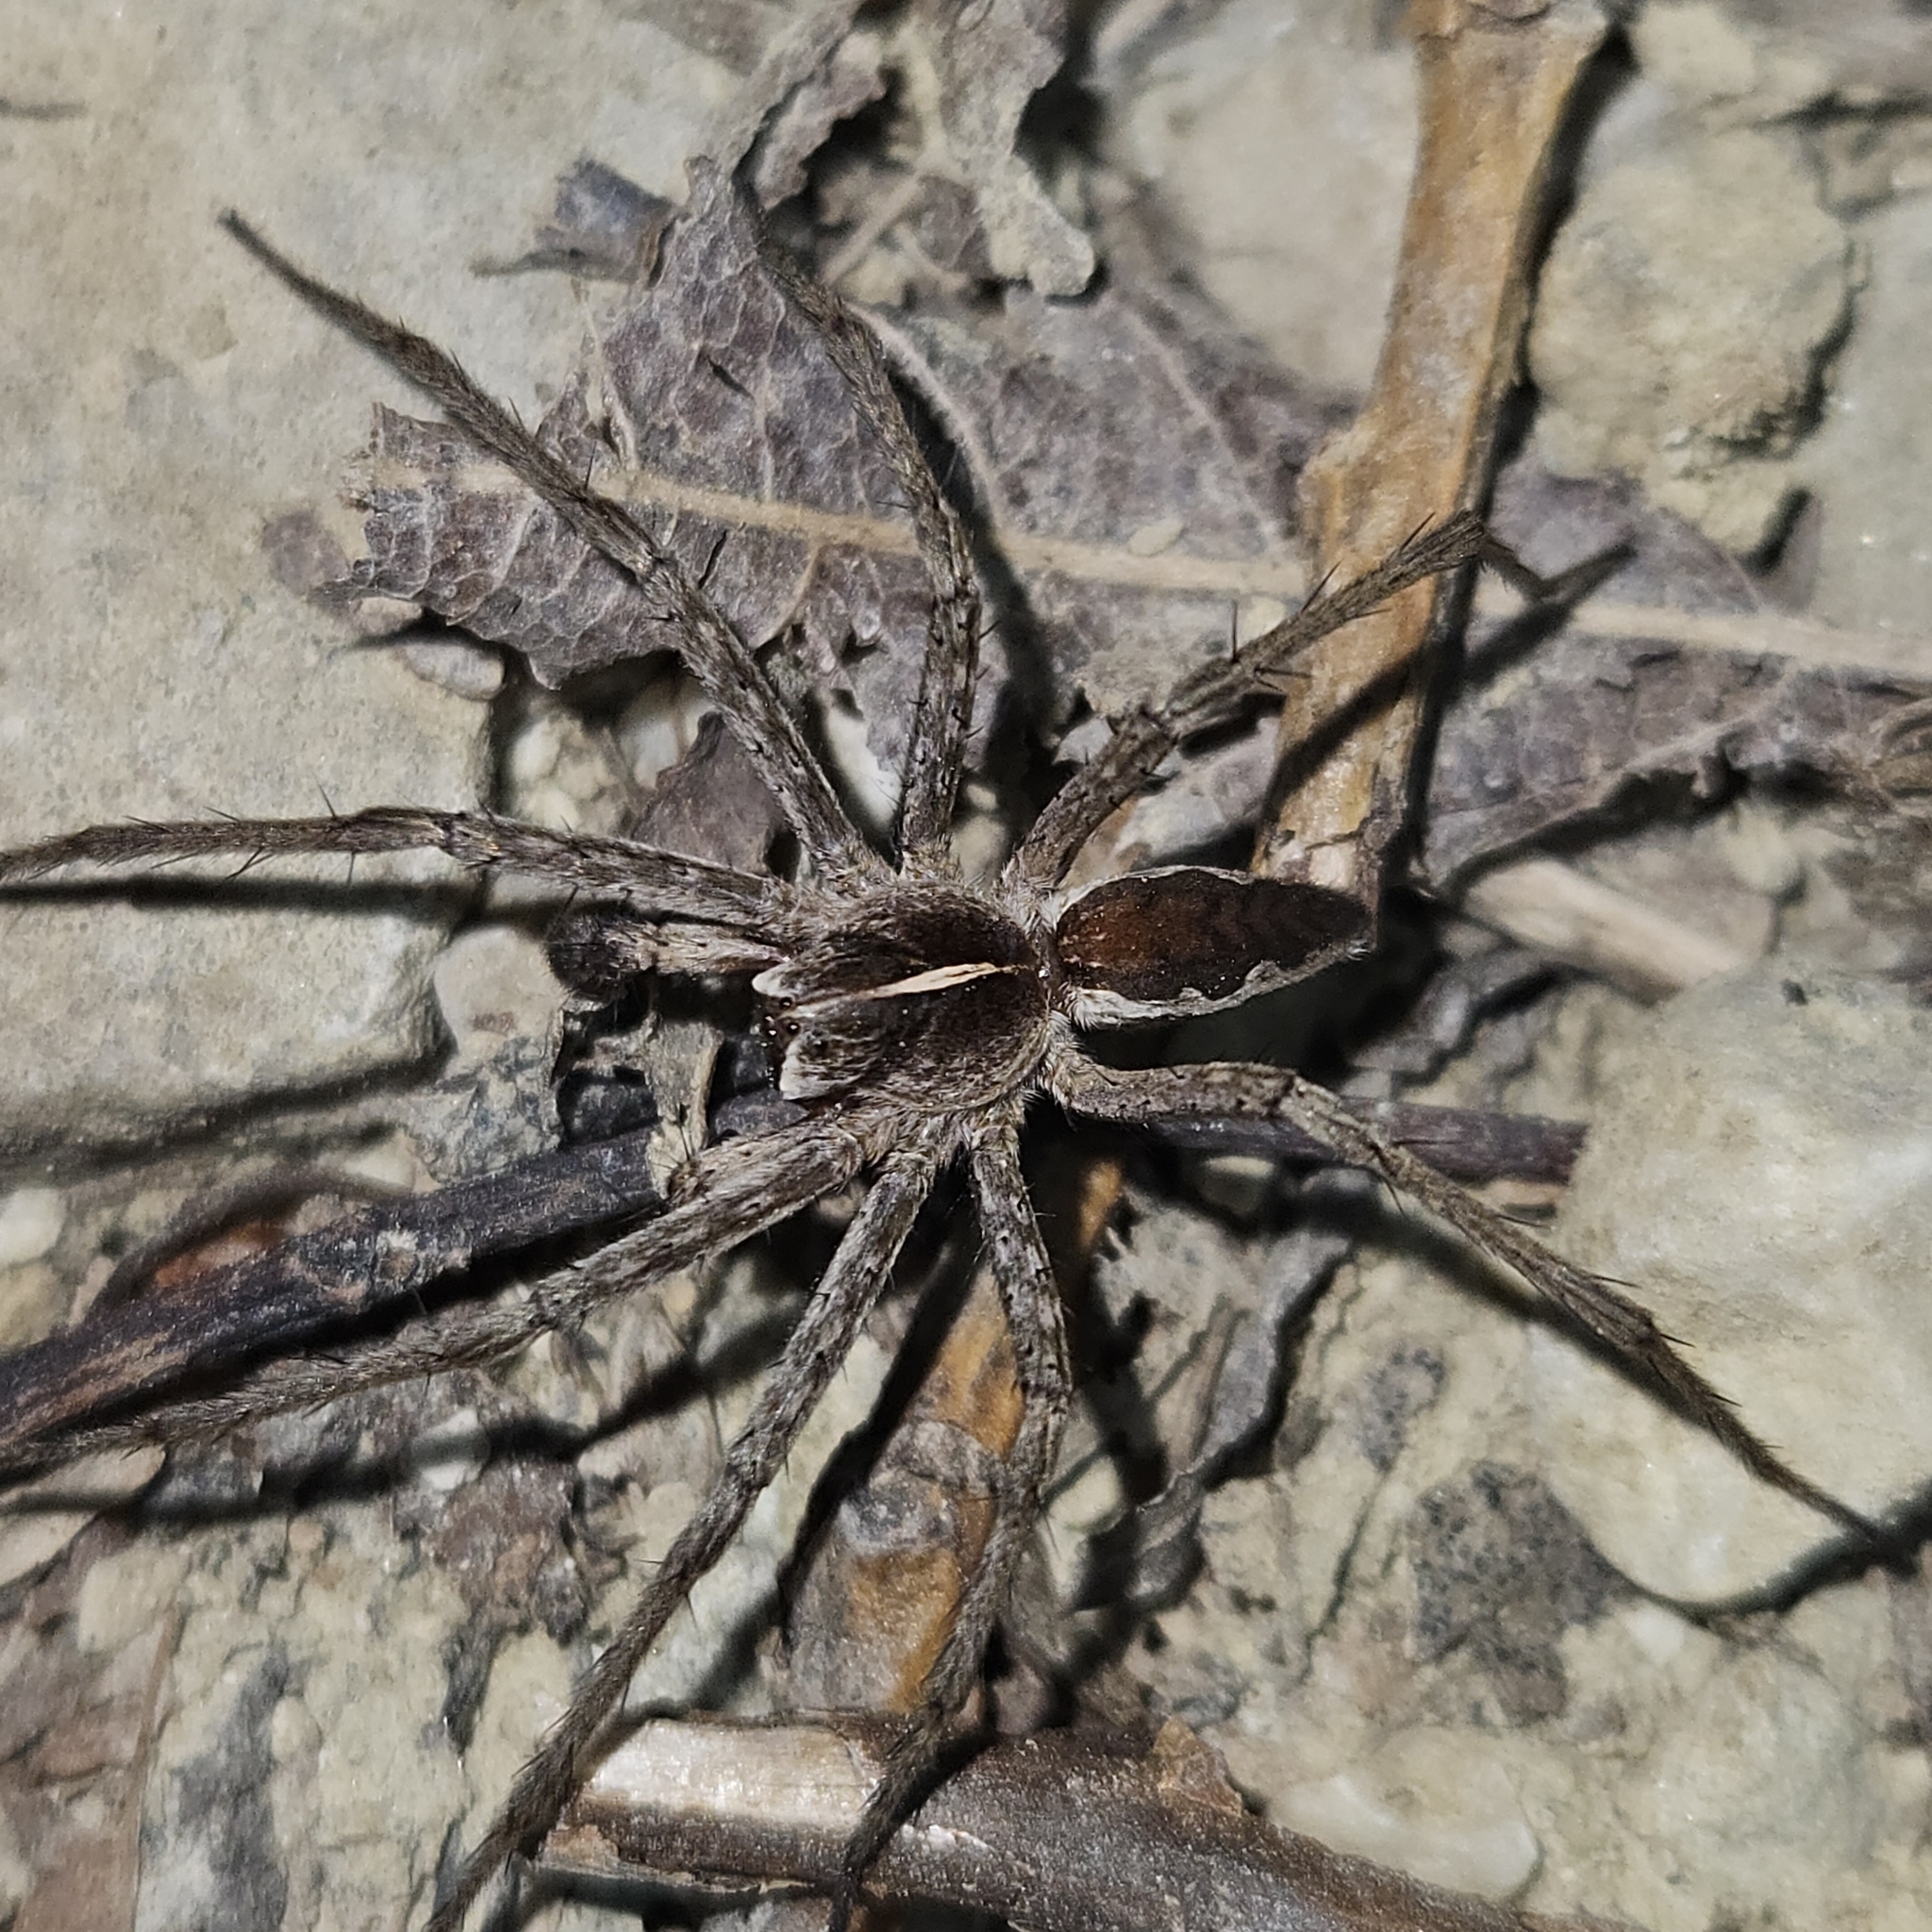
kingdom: Animalia
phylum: Arthropoda
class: Arachnida
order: Araneae
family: Pisauridae
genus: Pisaura
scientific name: Pisaura mirabilis
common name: Tent spider
